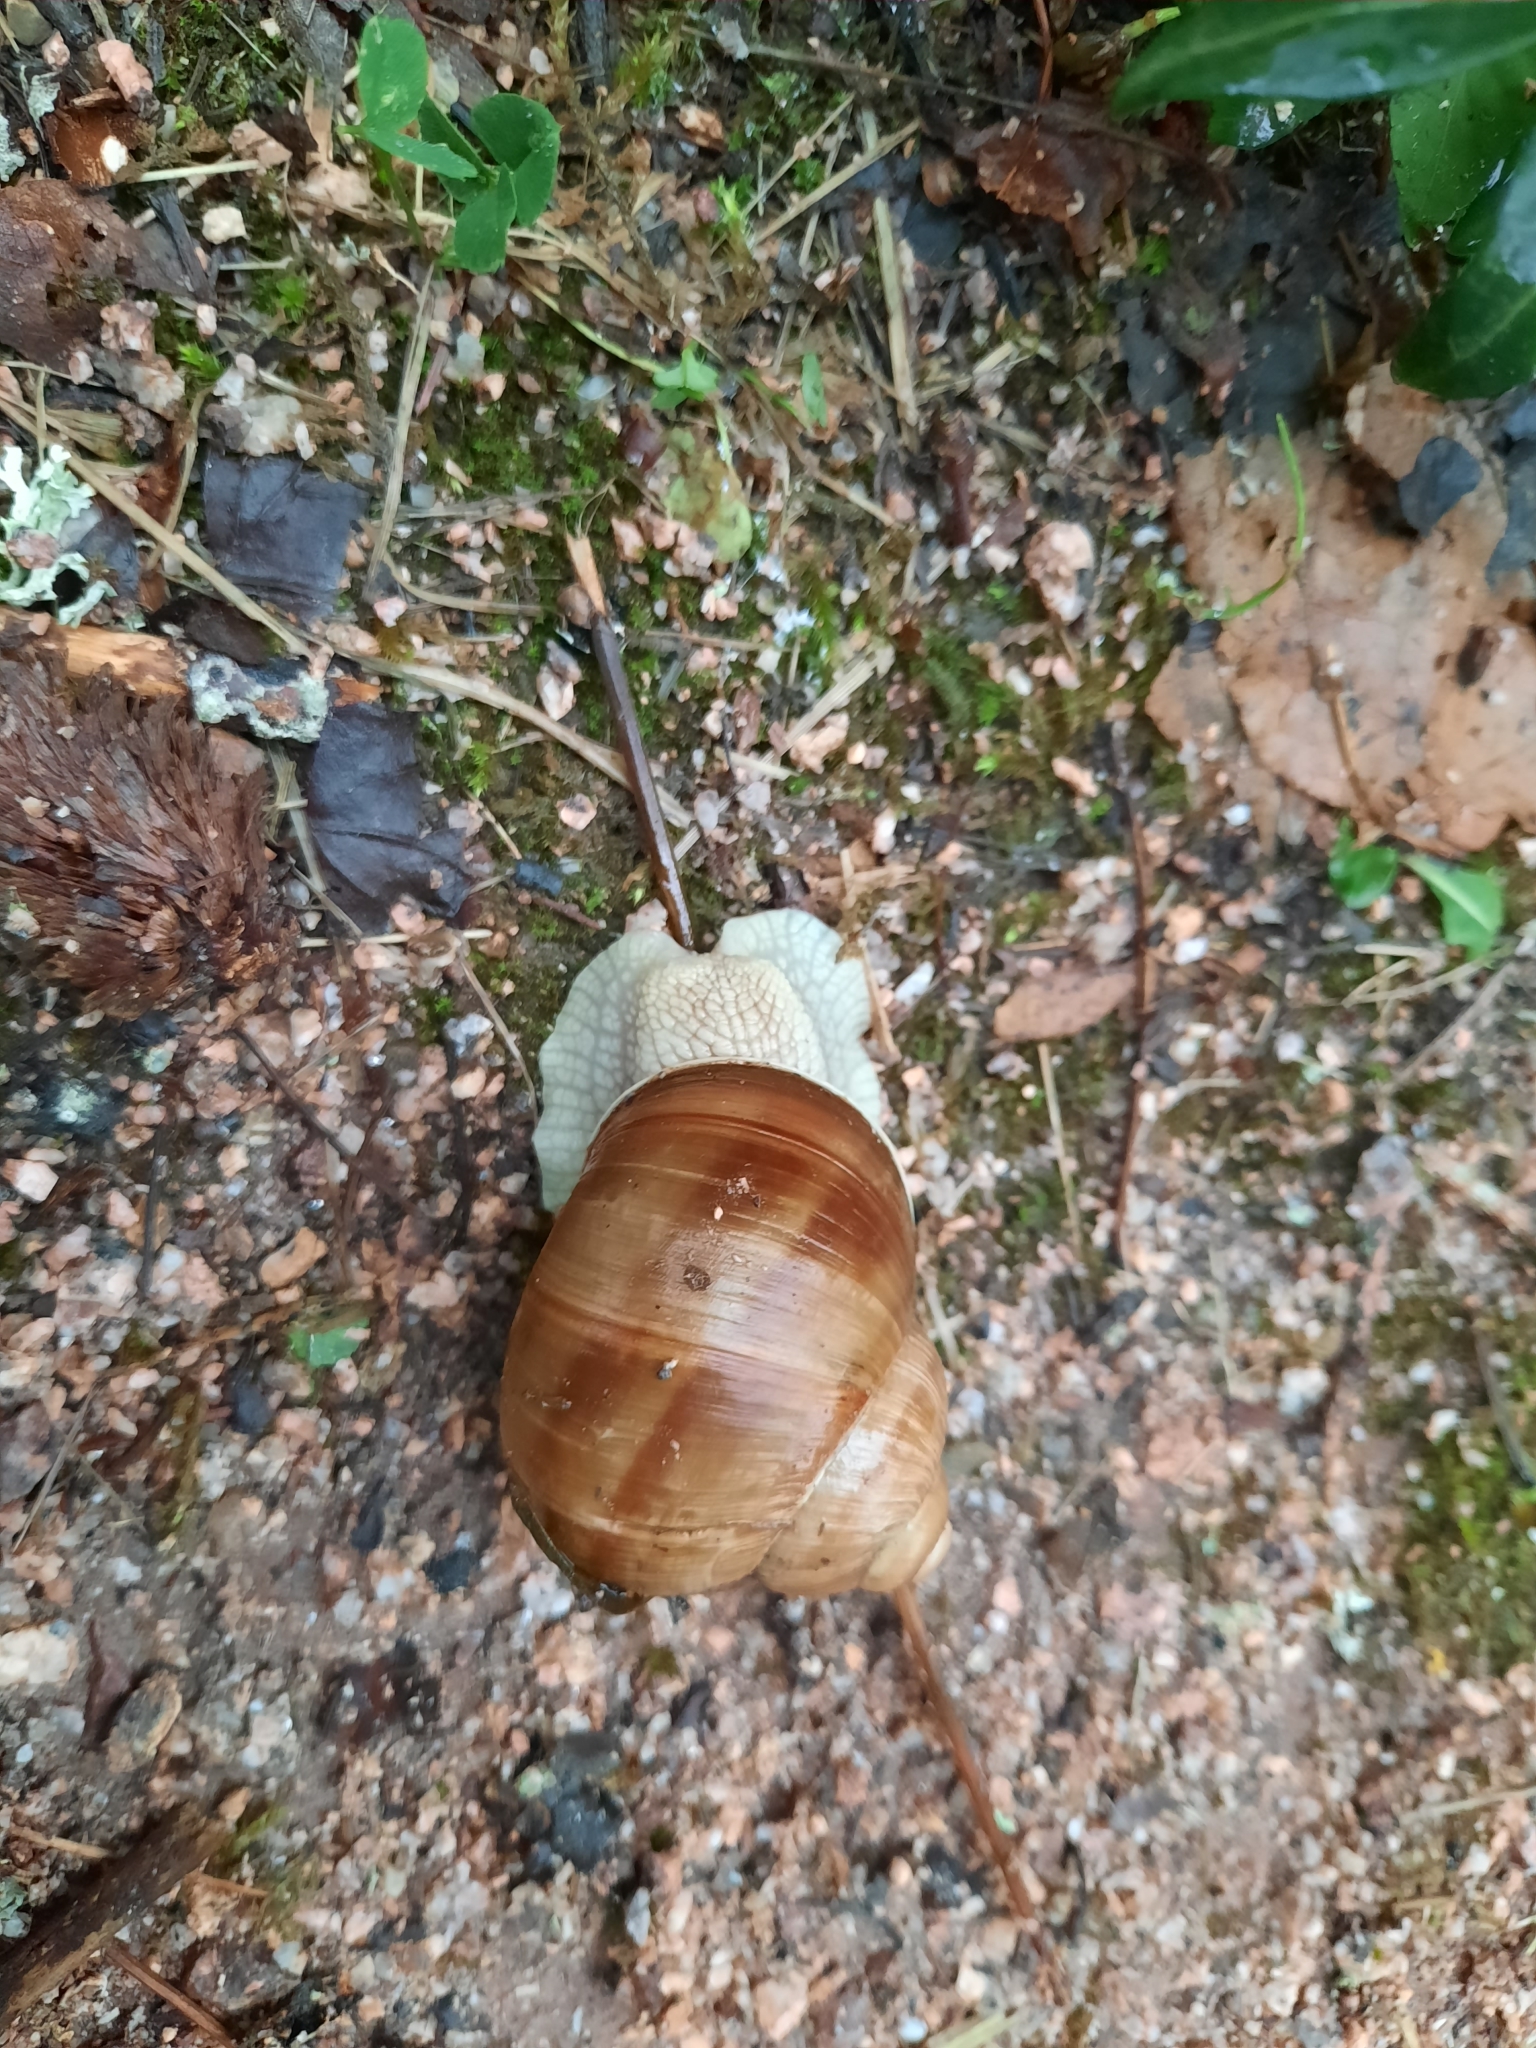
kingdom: Animalia
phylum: Mollusca
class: Gastropoda
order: Stylommatophora
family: Helicidae
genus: Helix
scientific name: Helix pomatia
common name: Roman snail
